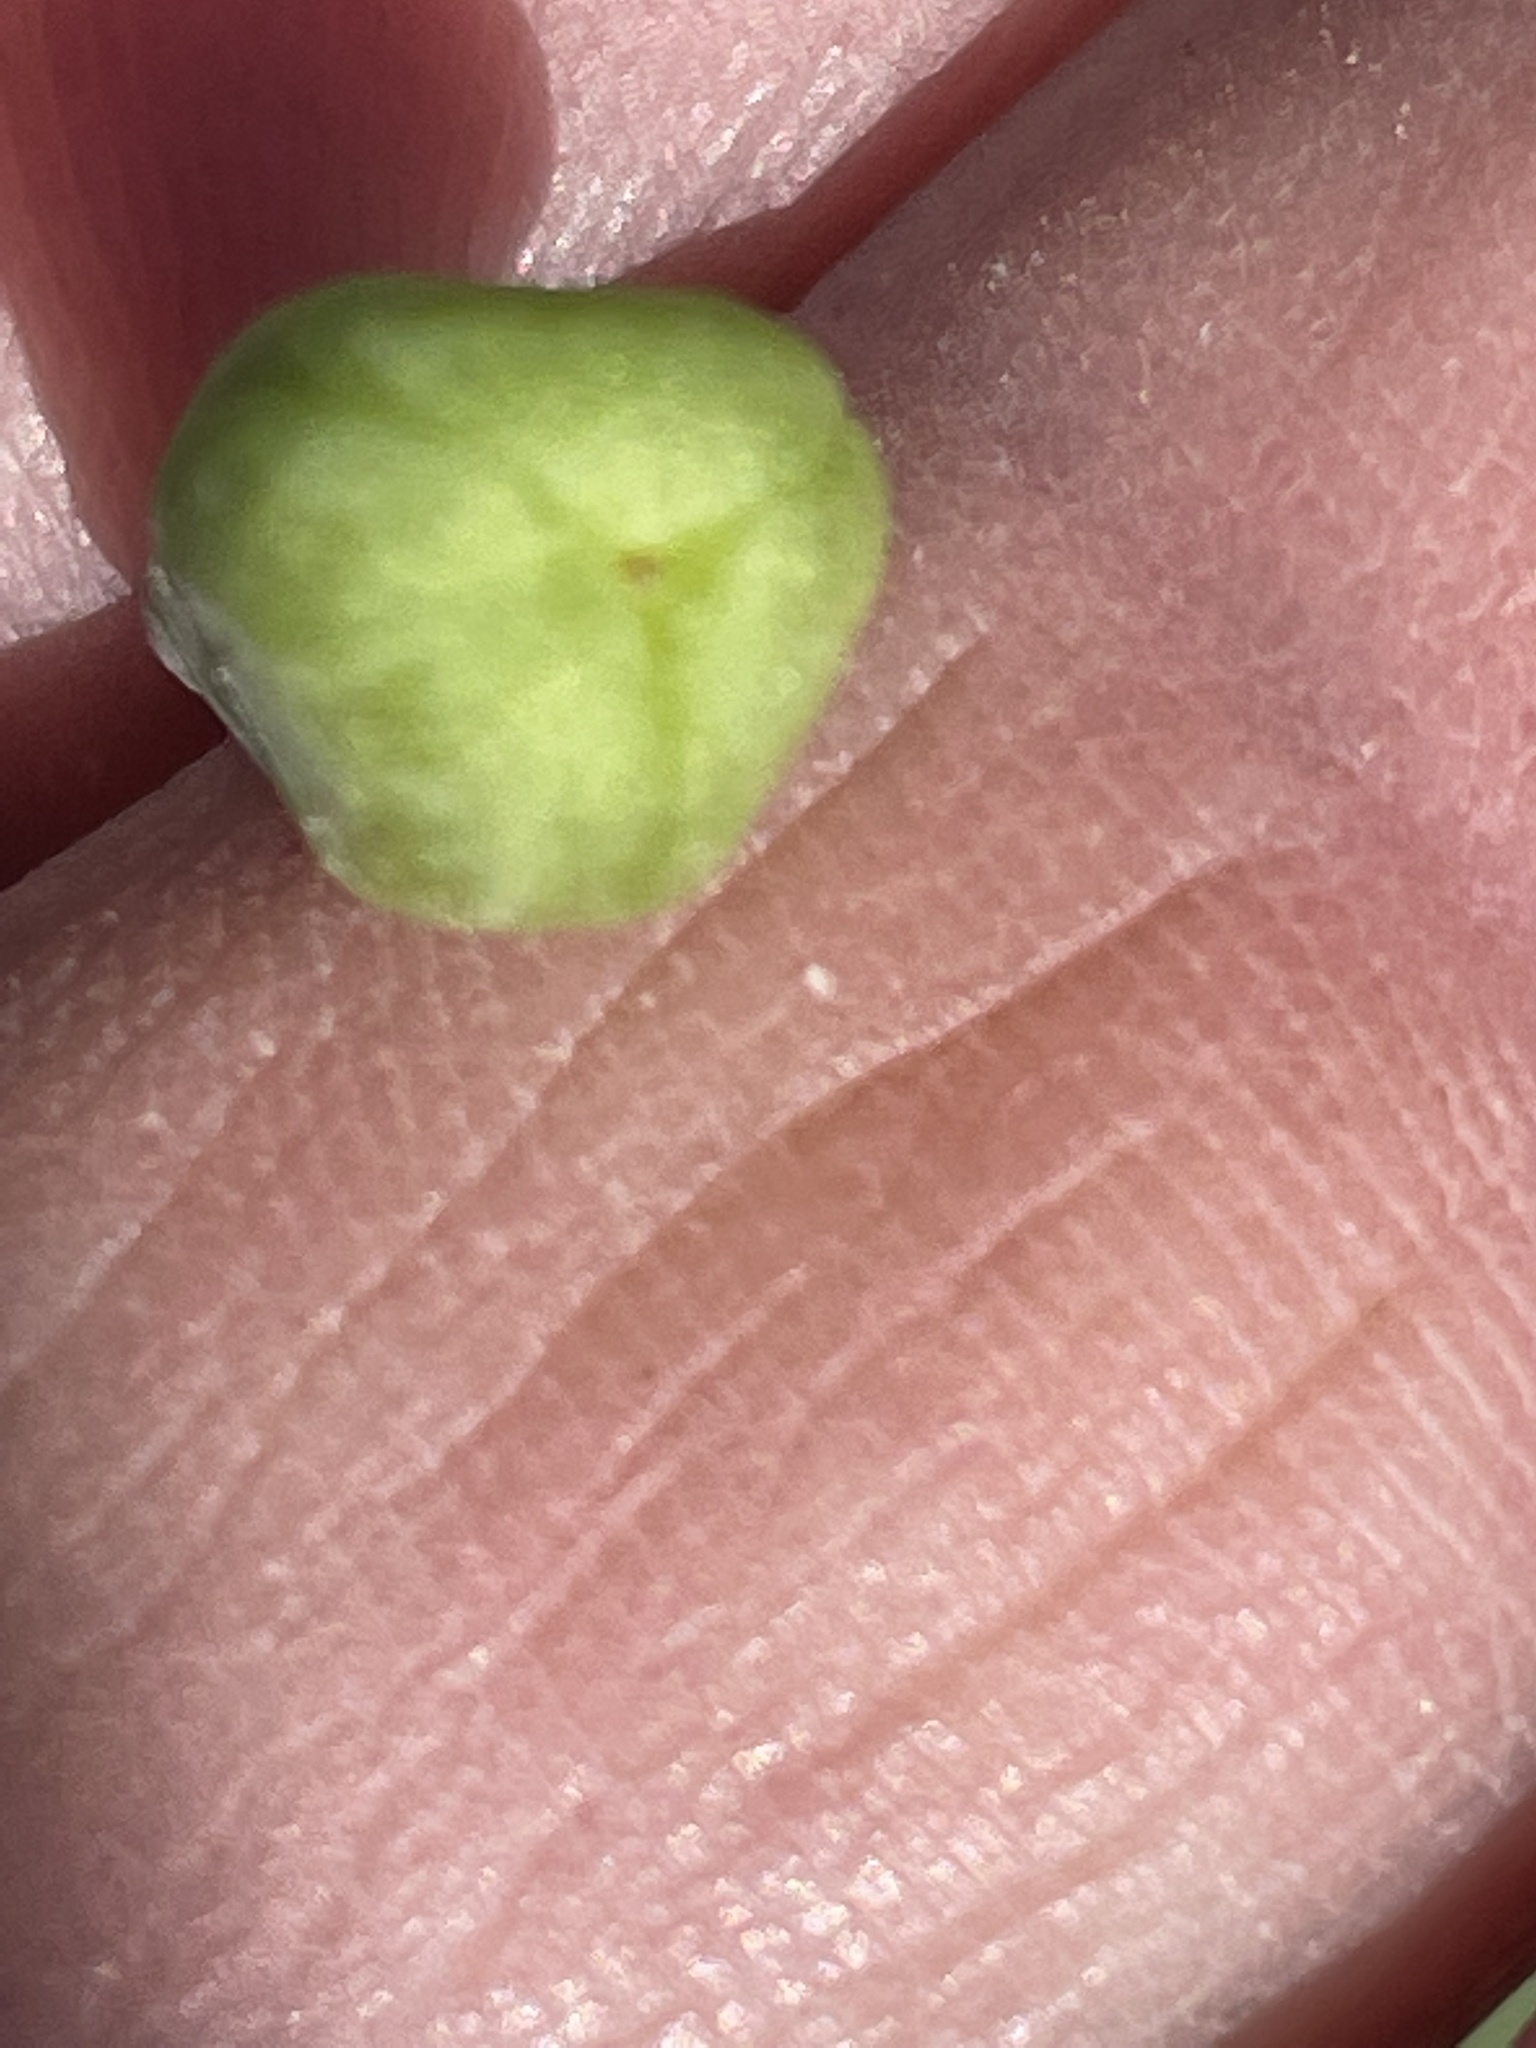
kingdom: Plantae
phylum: Tracheophyta
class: Liliopsida
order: Liliales
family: Liliaceae
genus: Erythronium
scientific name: Erythronium umbilicatum
